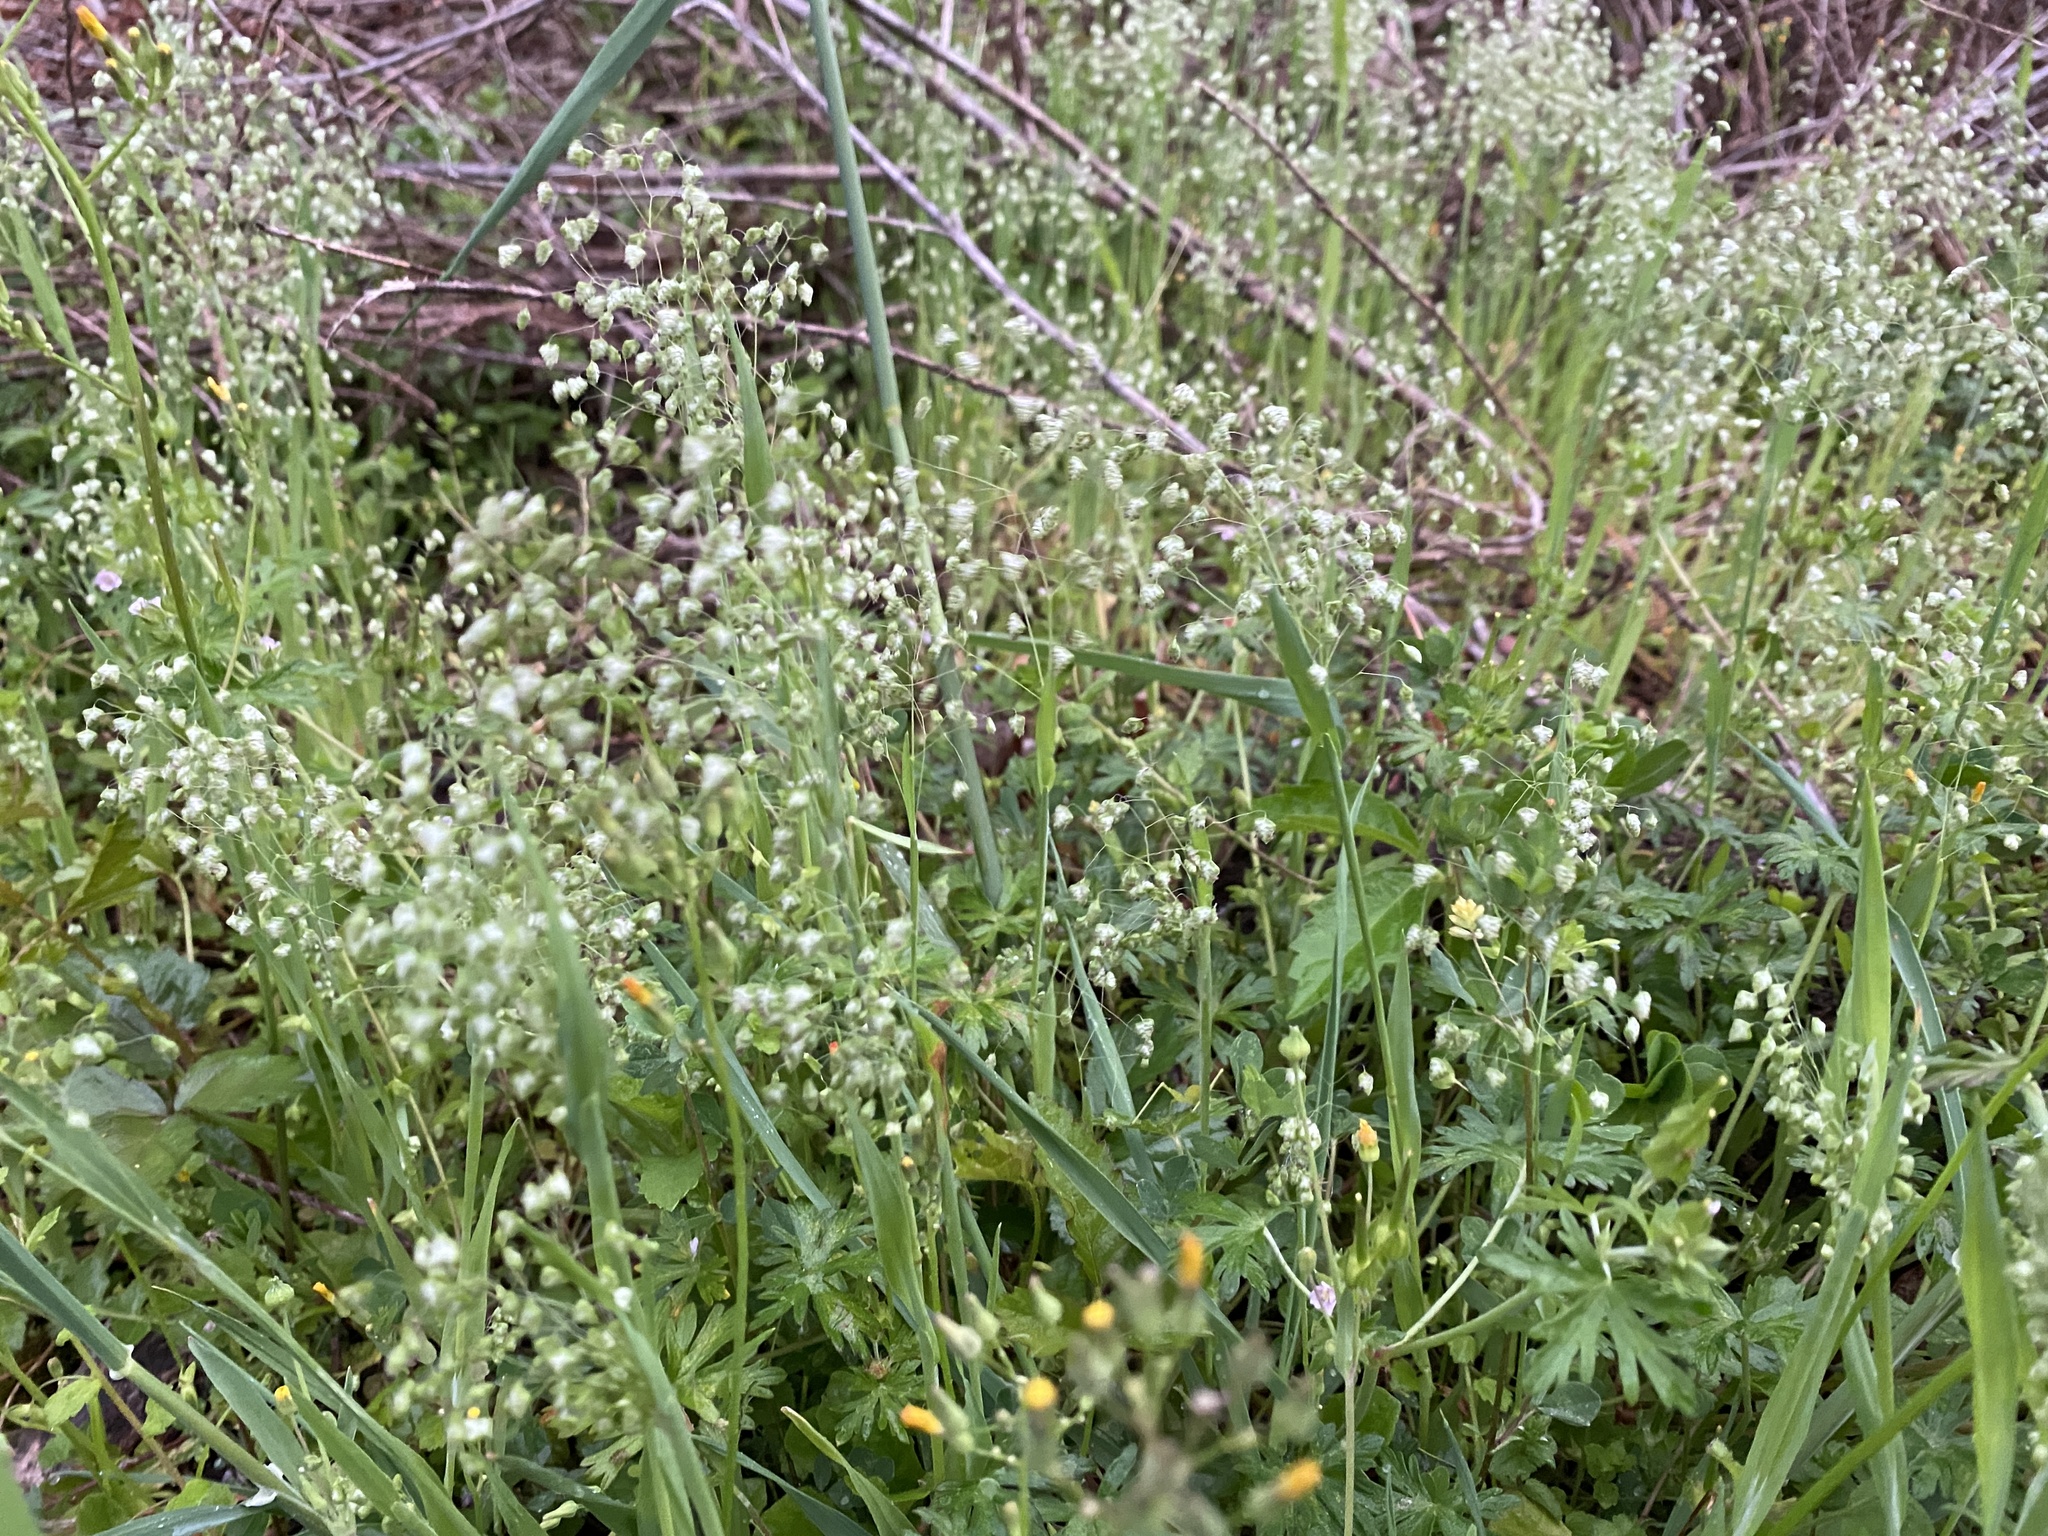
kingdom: Plantae
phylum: Tracheophyta
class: Liliopsida
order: Poales
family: Poaceae
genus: Briza
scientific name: Briza minor
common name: Lesser quaking-grass
